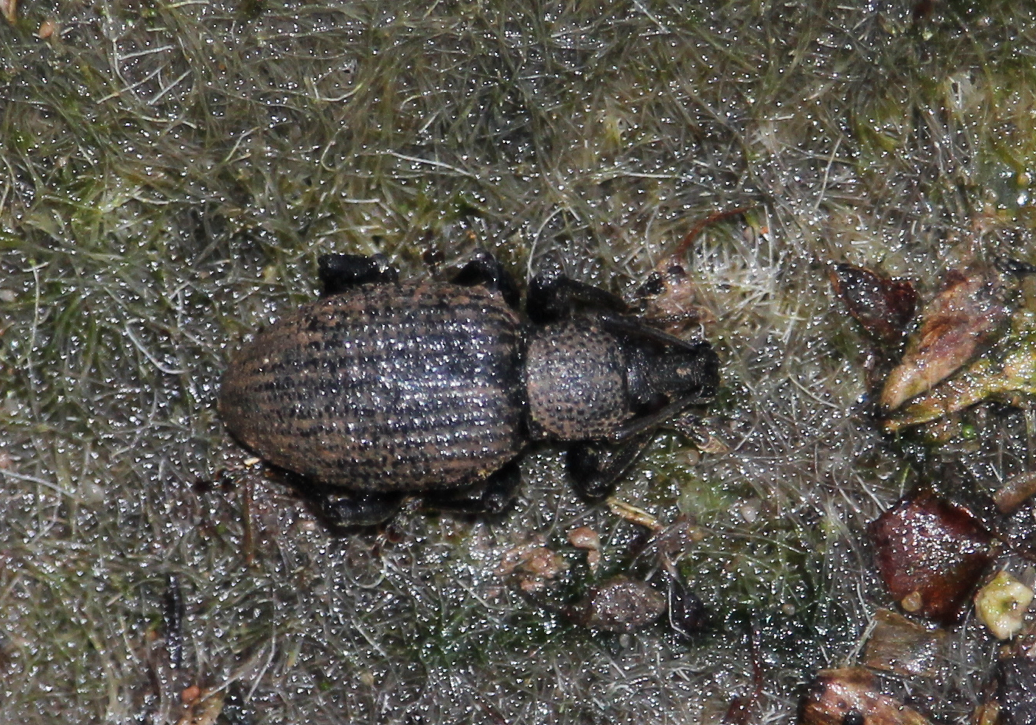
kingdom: Animalia
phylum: Arthropoda
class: Insecta
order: Coleoptera
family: Curculionidae
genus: Otiorhynchus
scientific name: Otiorhynchus sulcatus
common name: Black vine weevil
